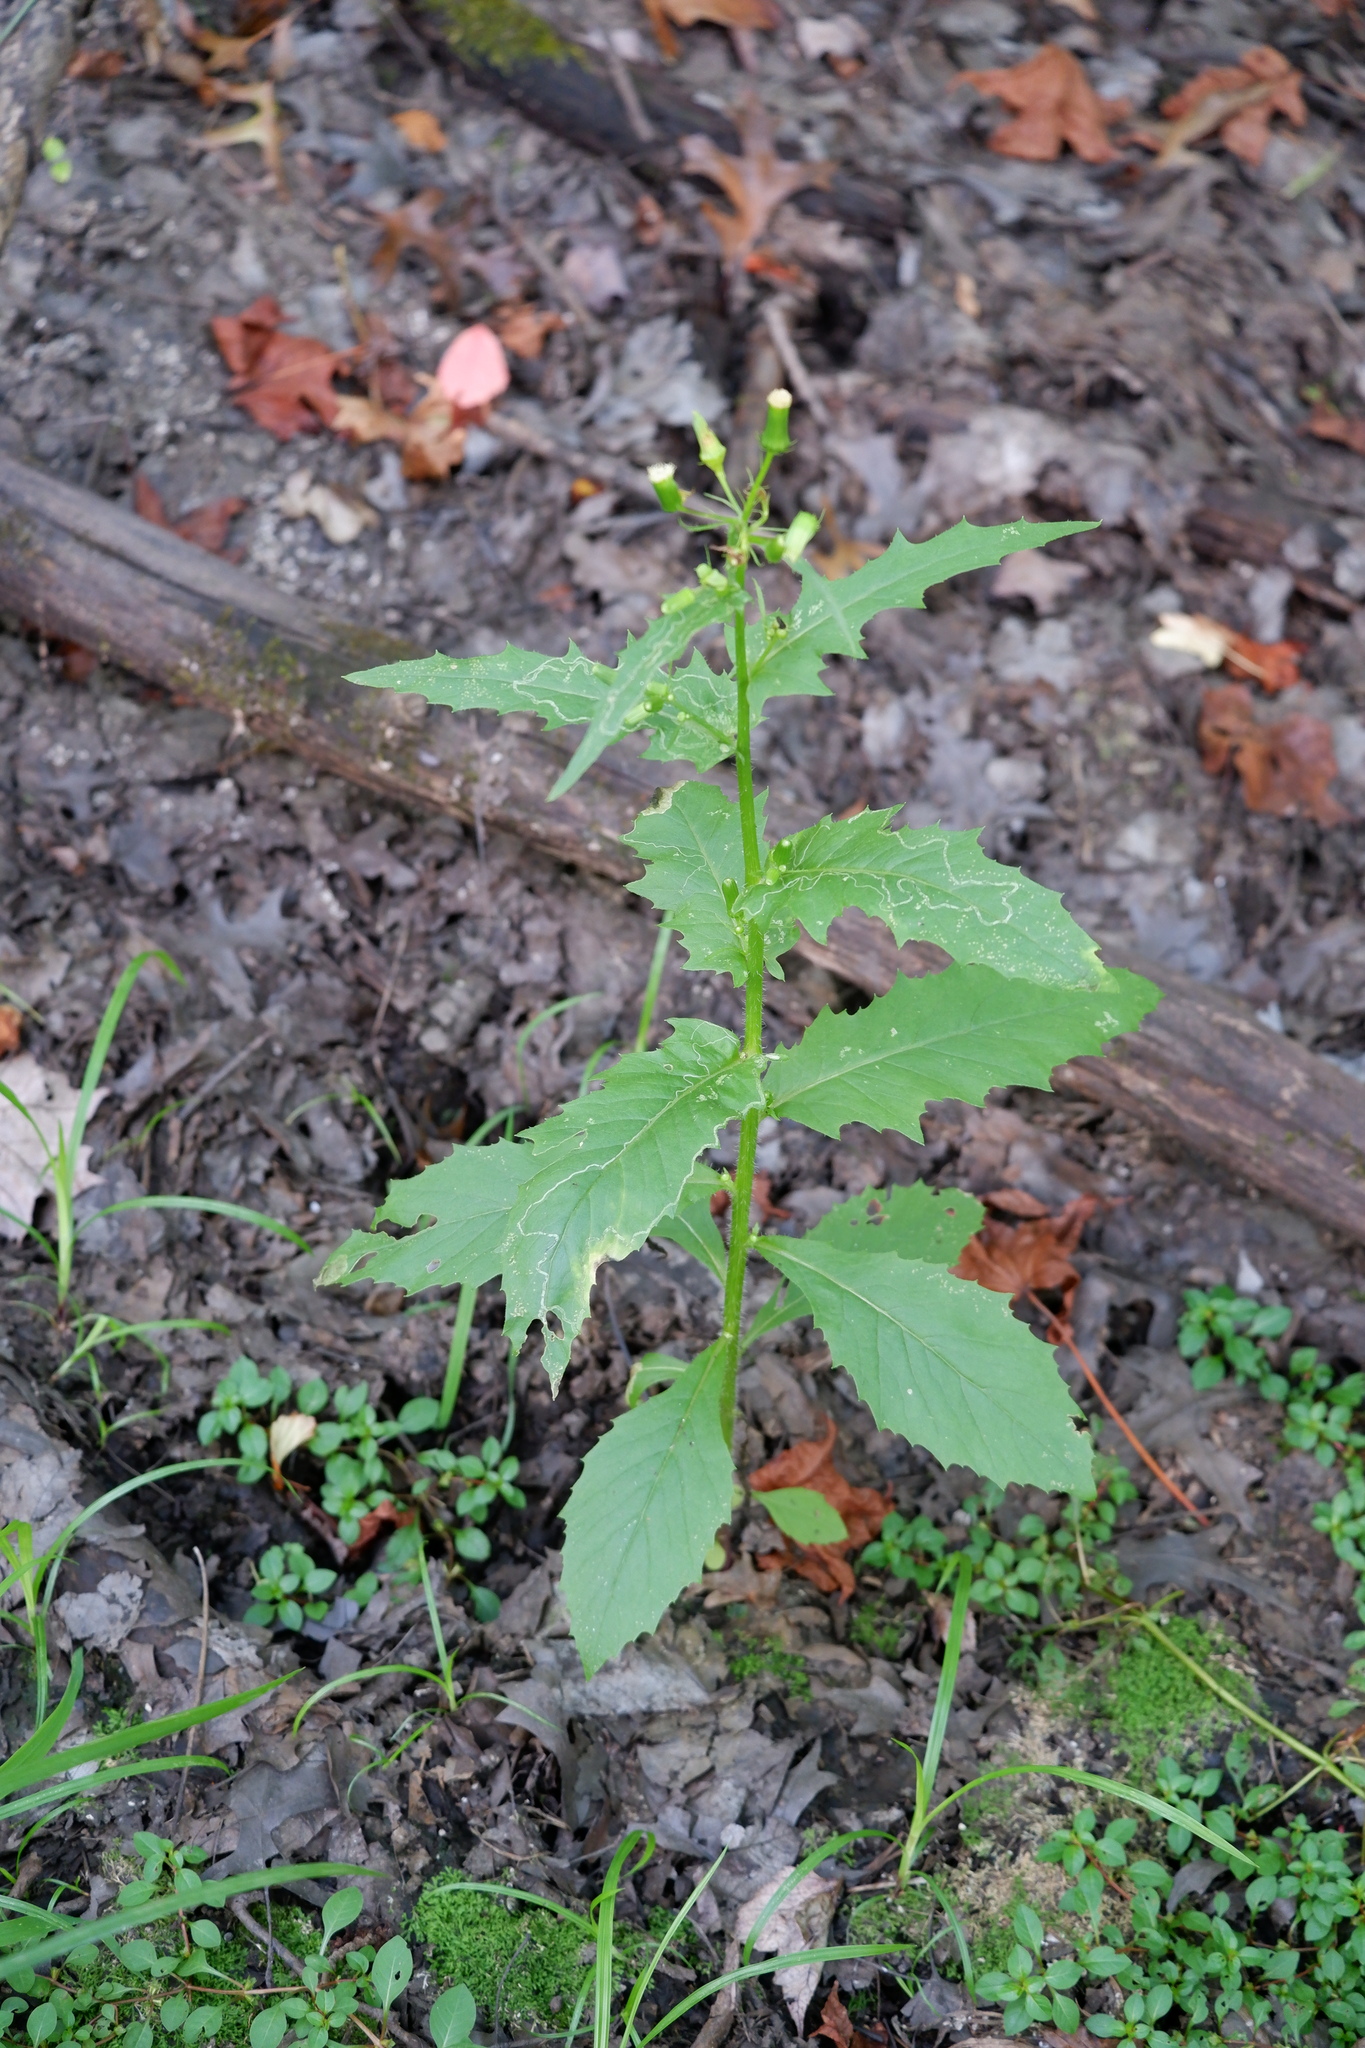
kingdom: Plantae
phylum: Tracheophyta
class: Magnoliopsida
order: Asterales
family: Asteraceae
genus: Erechtites
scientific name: Erechtites hieraciifolius
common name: American burnweed
